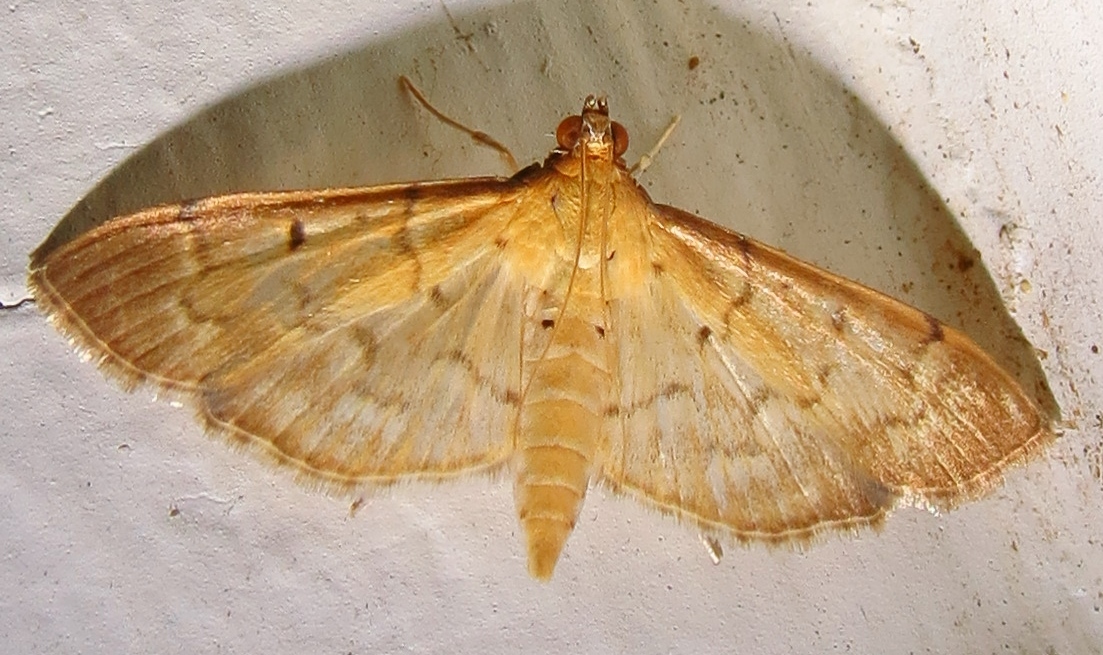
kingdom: Animalia
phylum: Arthropoda
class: Insecta
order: Lepidoptera
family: Crambidae
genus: Herpetogramma
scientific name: Herpetogramma bipunctalis
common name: Southern beet webworm
